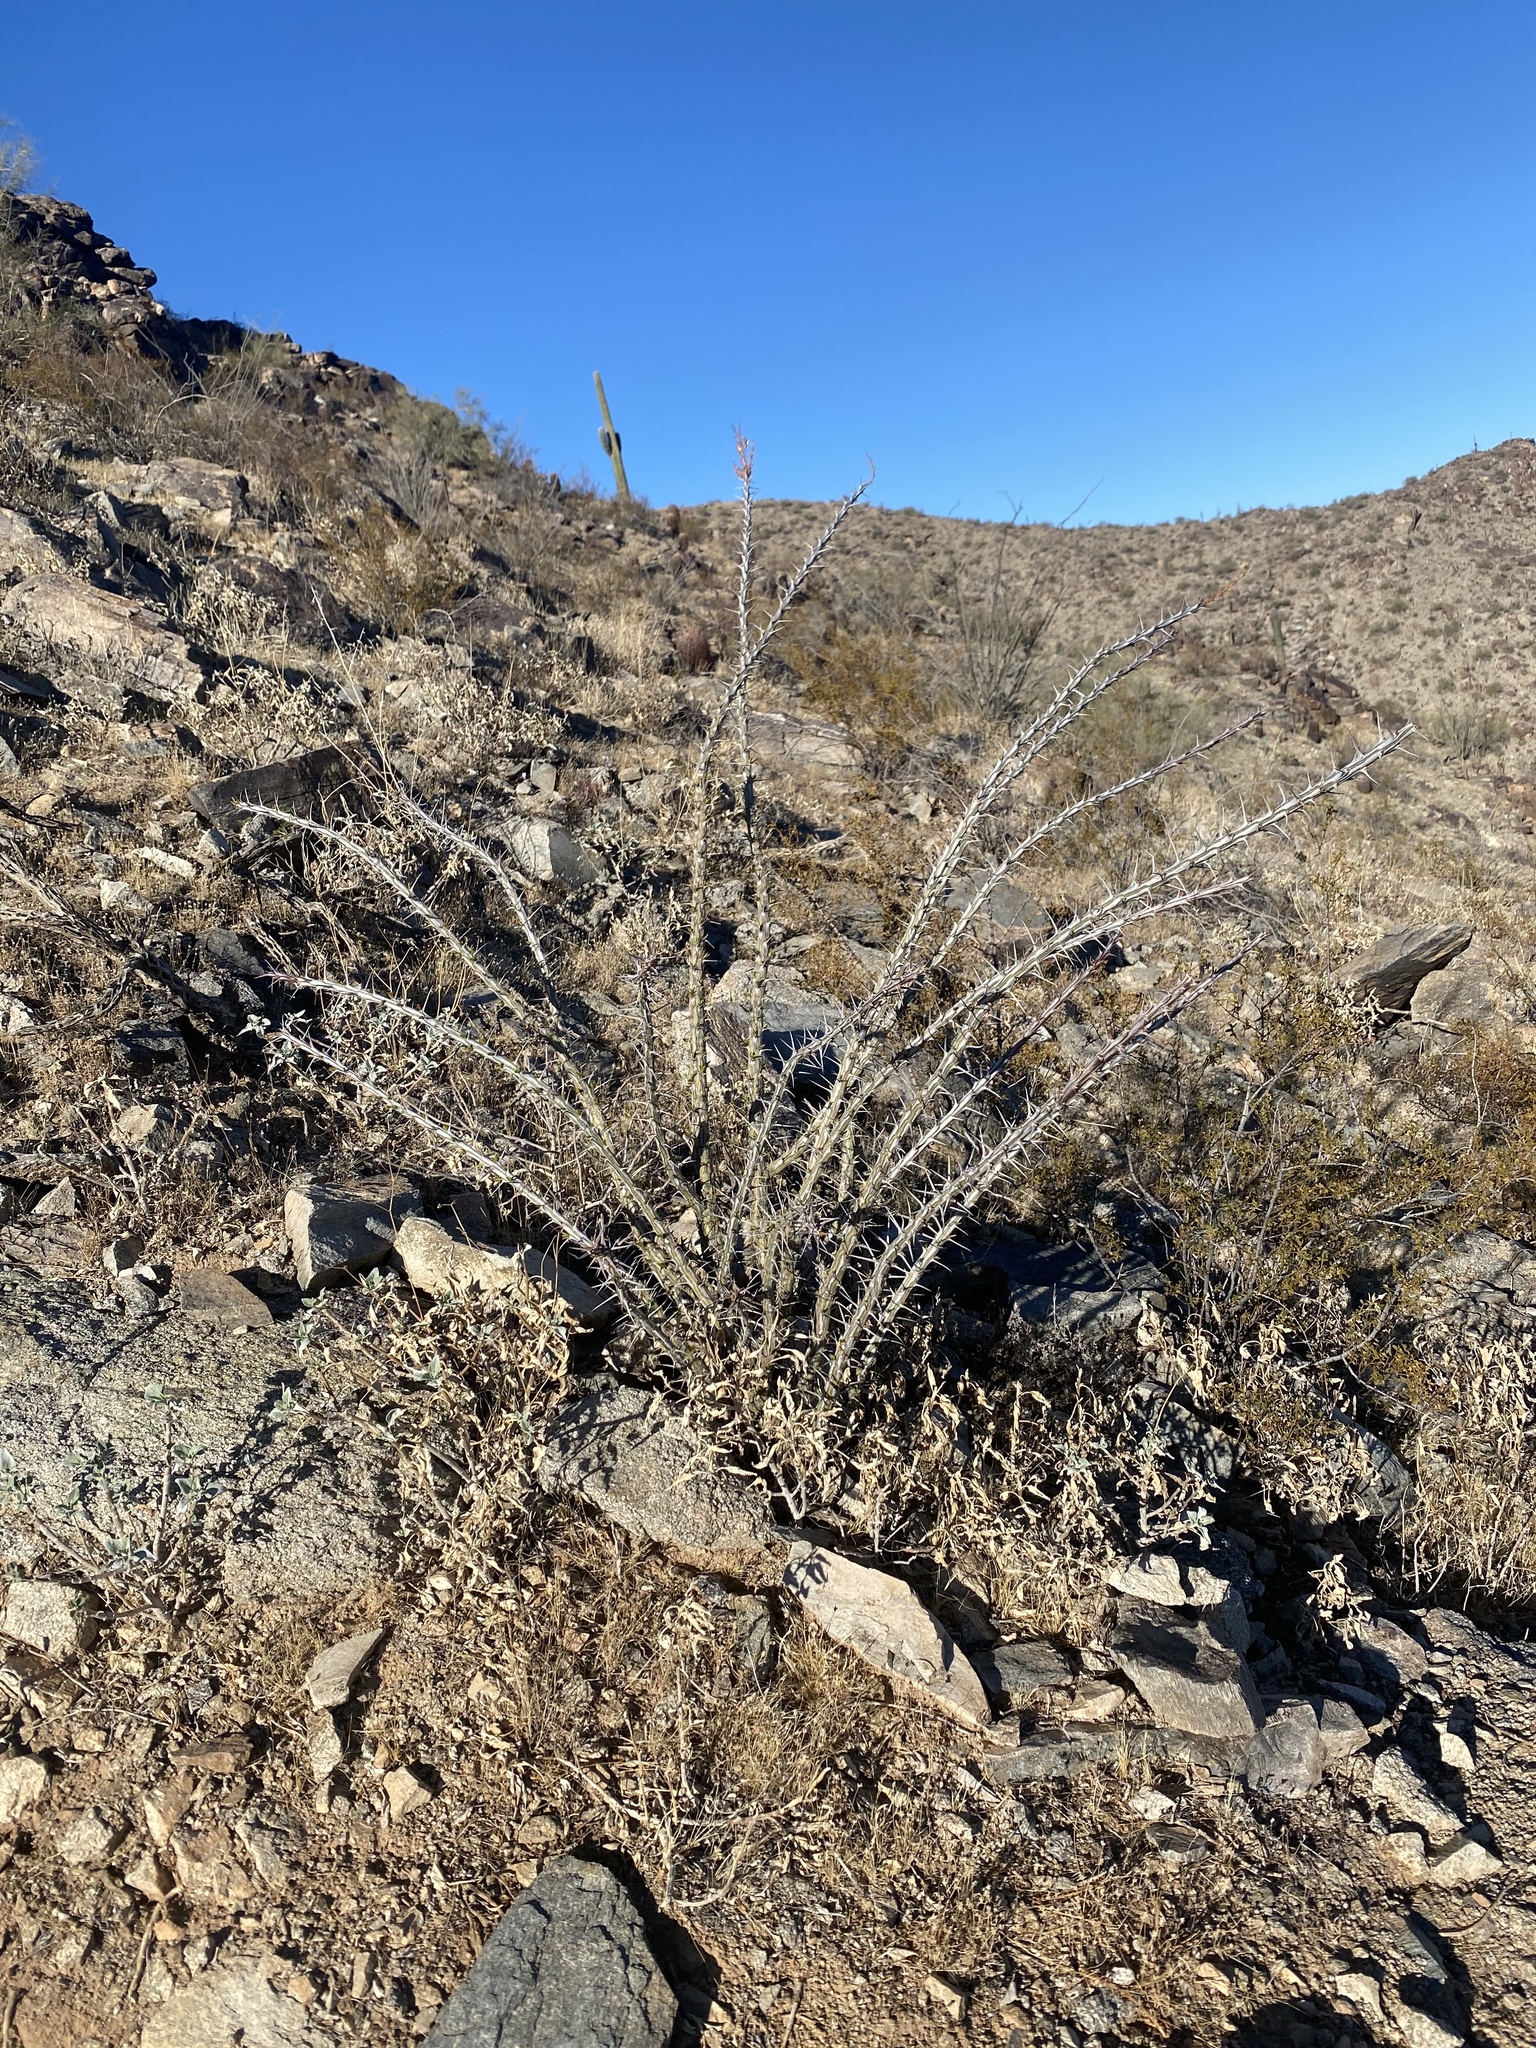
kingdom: Plantae
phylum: Tracheophyta
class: Magnoliopsida
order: Ericales
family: Fouquieriaceae
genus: Fouquieria
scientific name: Fouquieria splendens
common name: Vine-cactus
